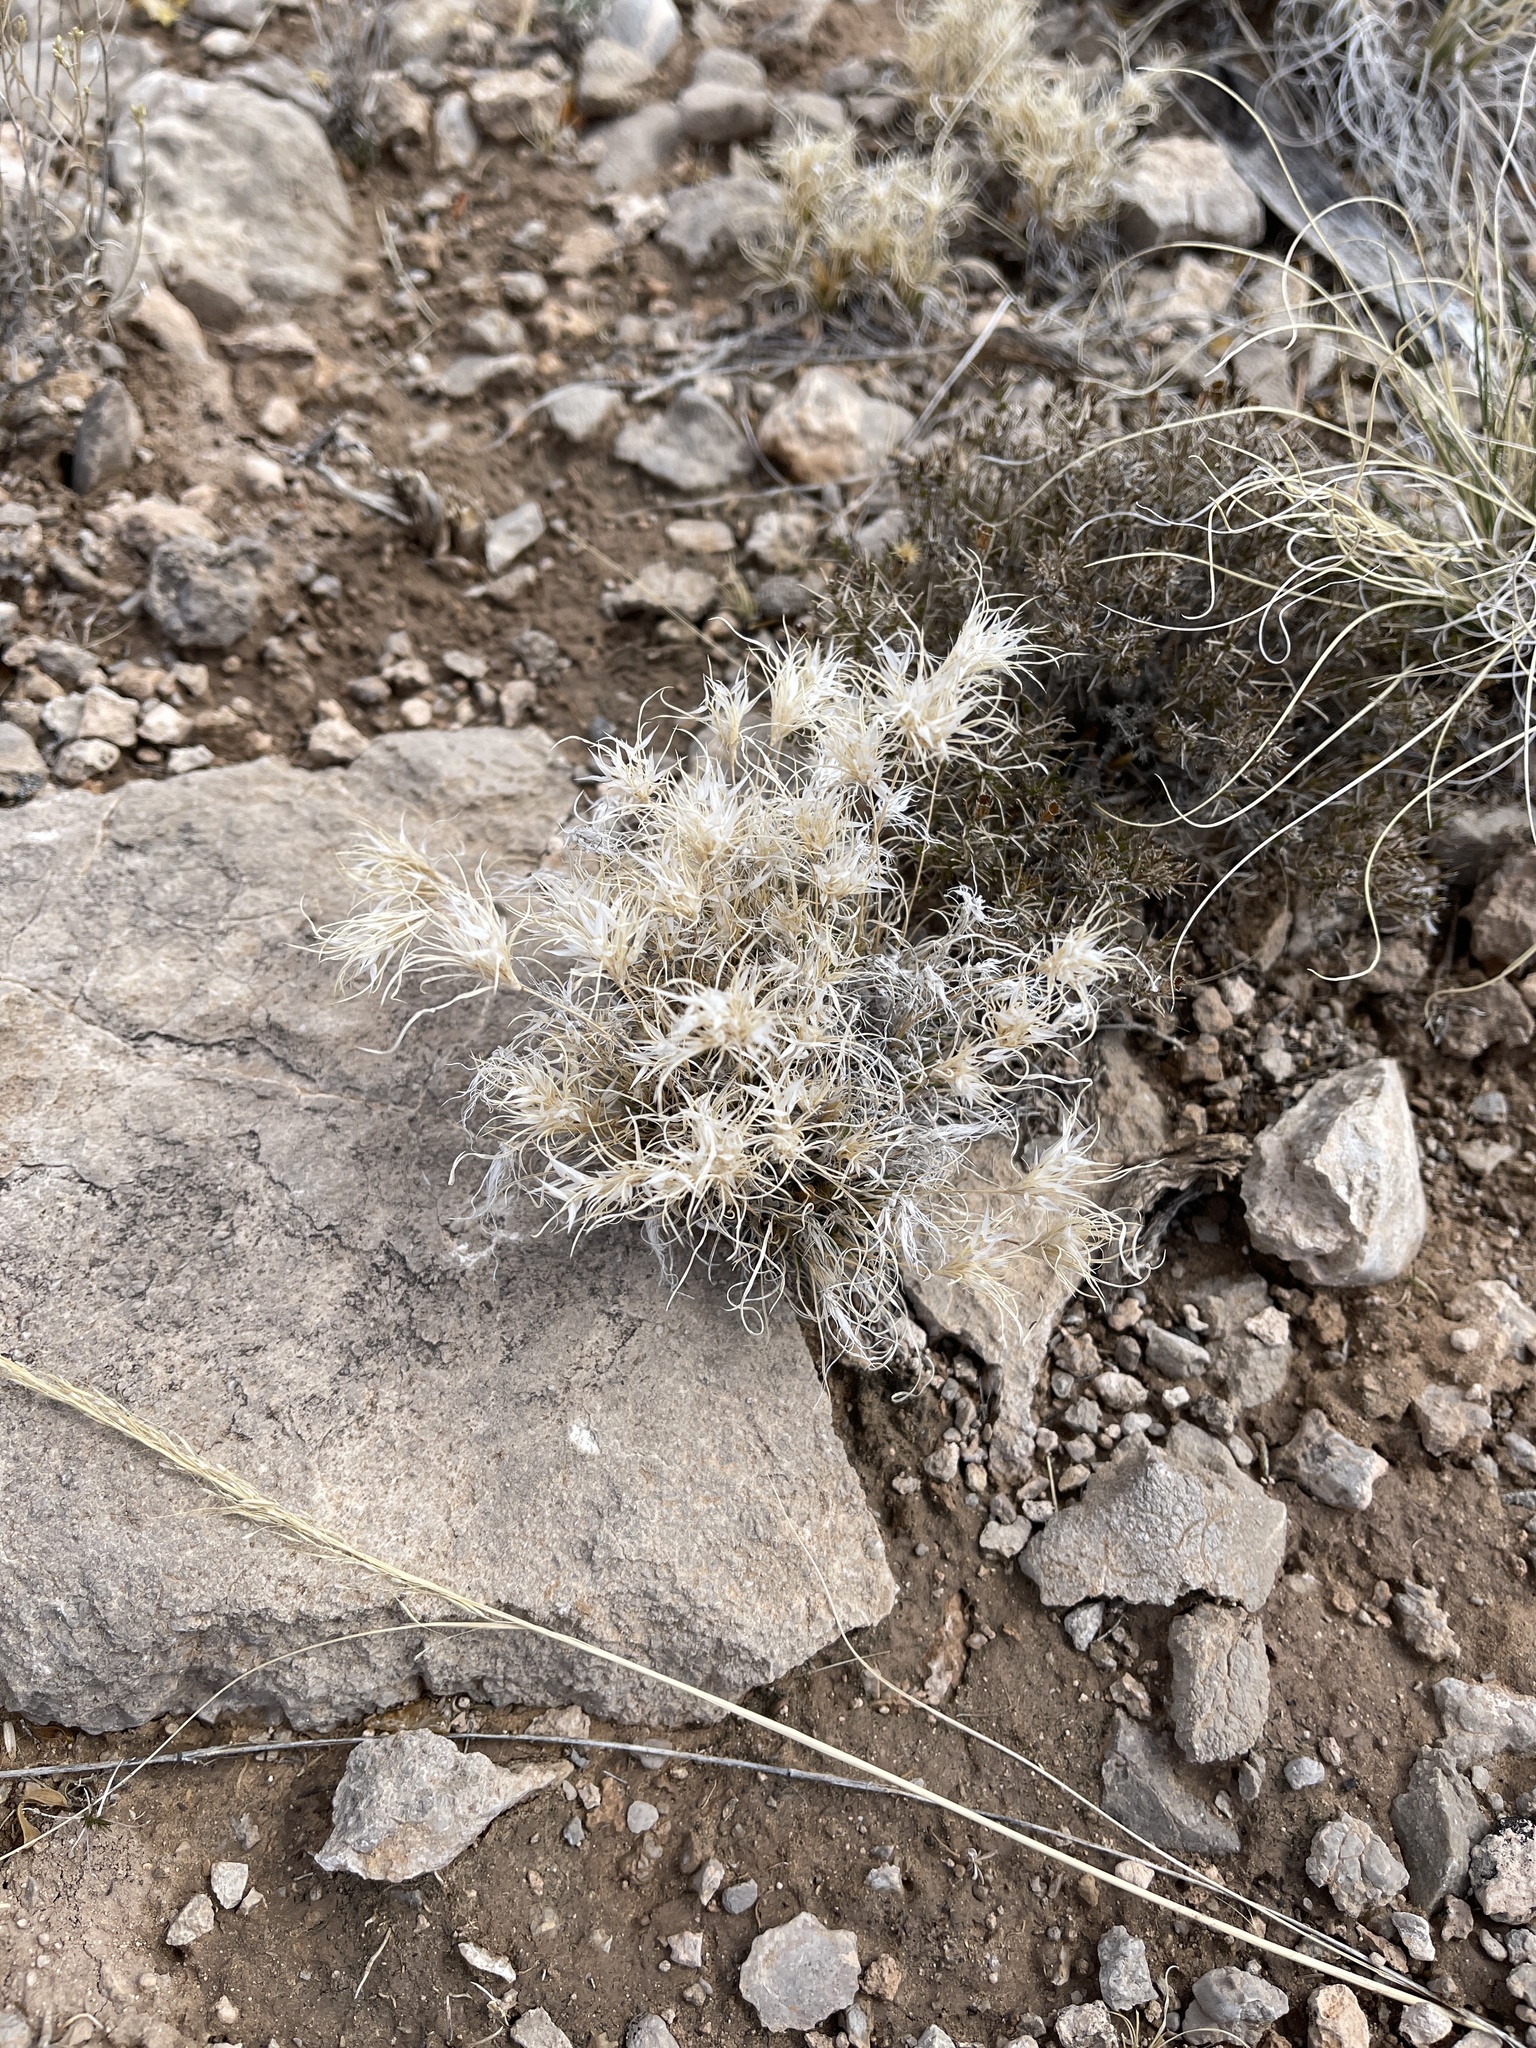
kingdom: Plantae
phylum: Tracheophyta
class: Liliopsida
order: Poales
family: Poaceae
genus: Dasyochloa
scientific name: Dasyochloa pulchella
